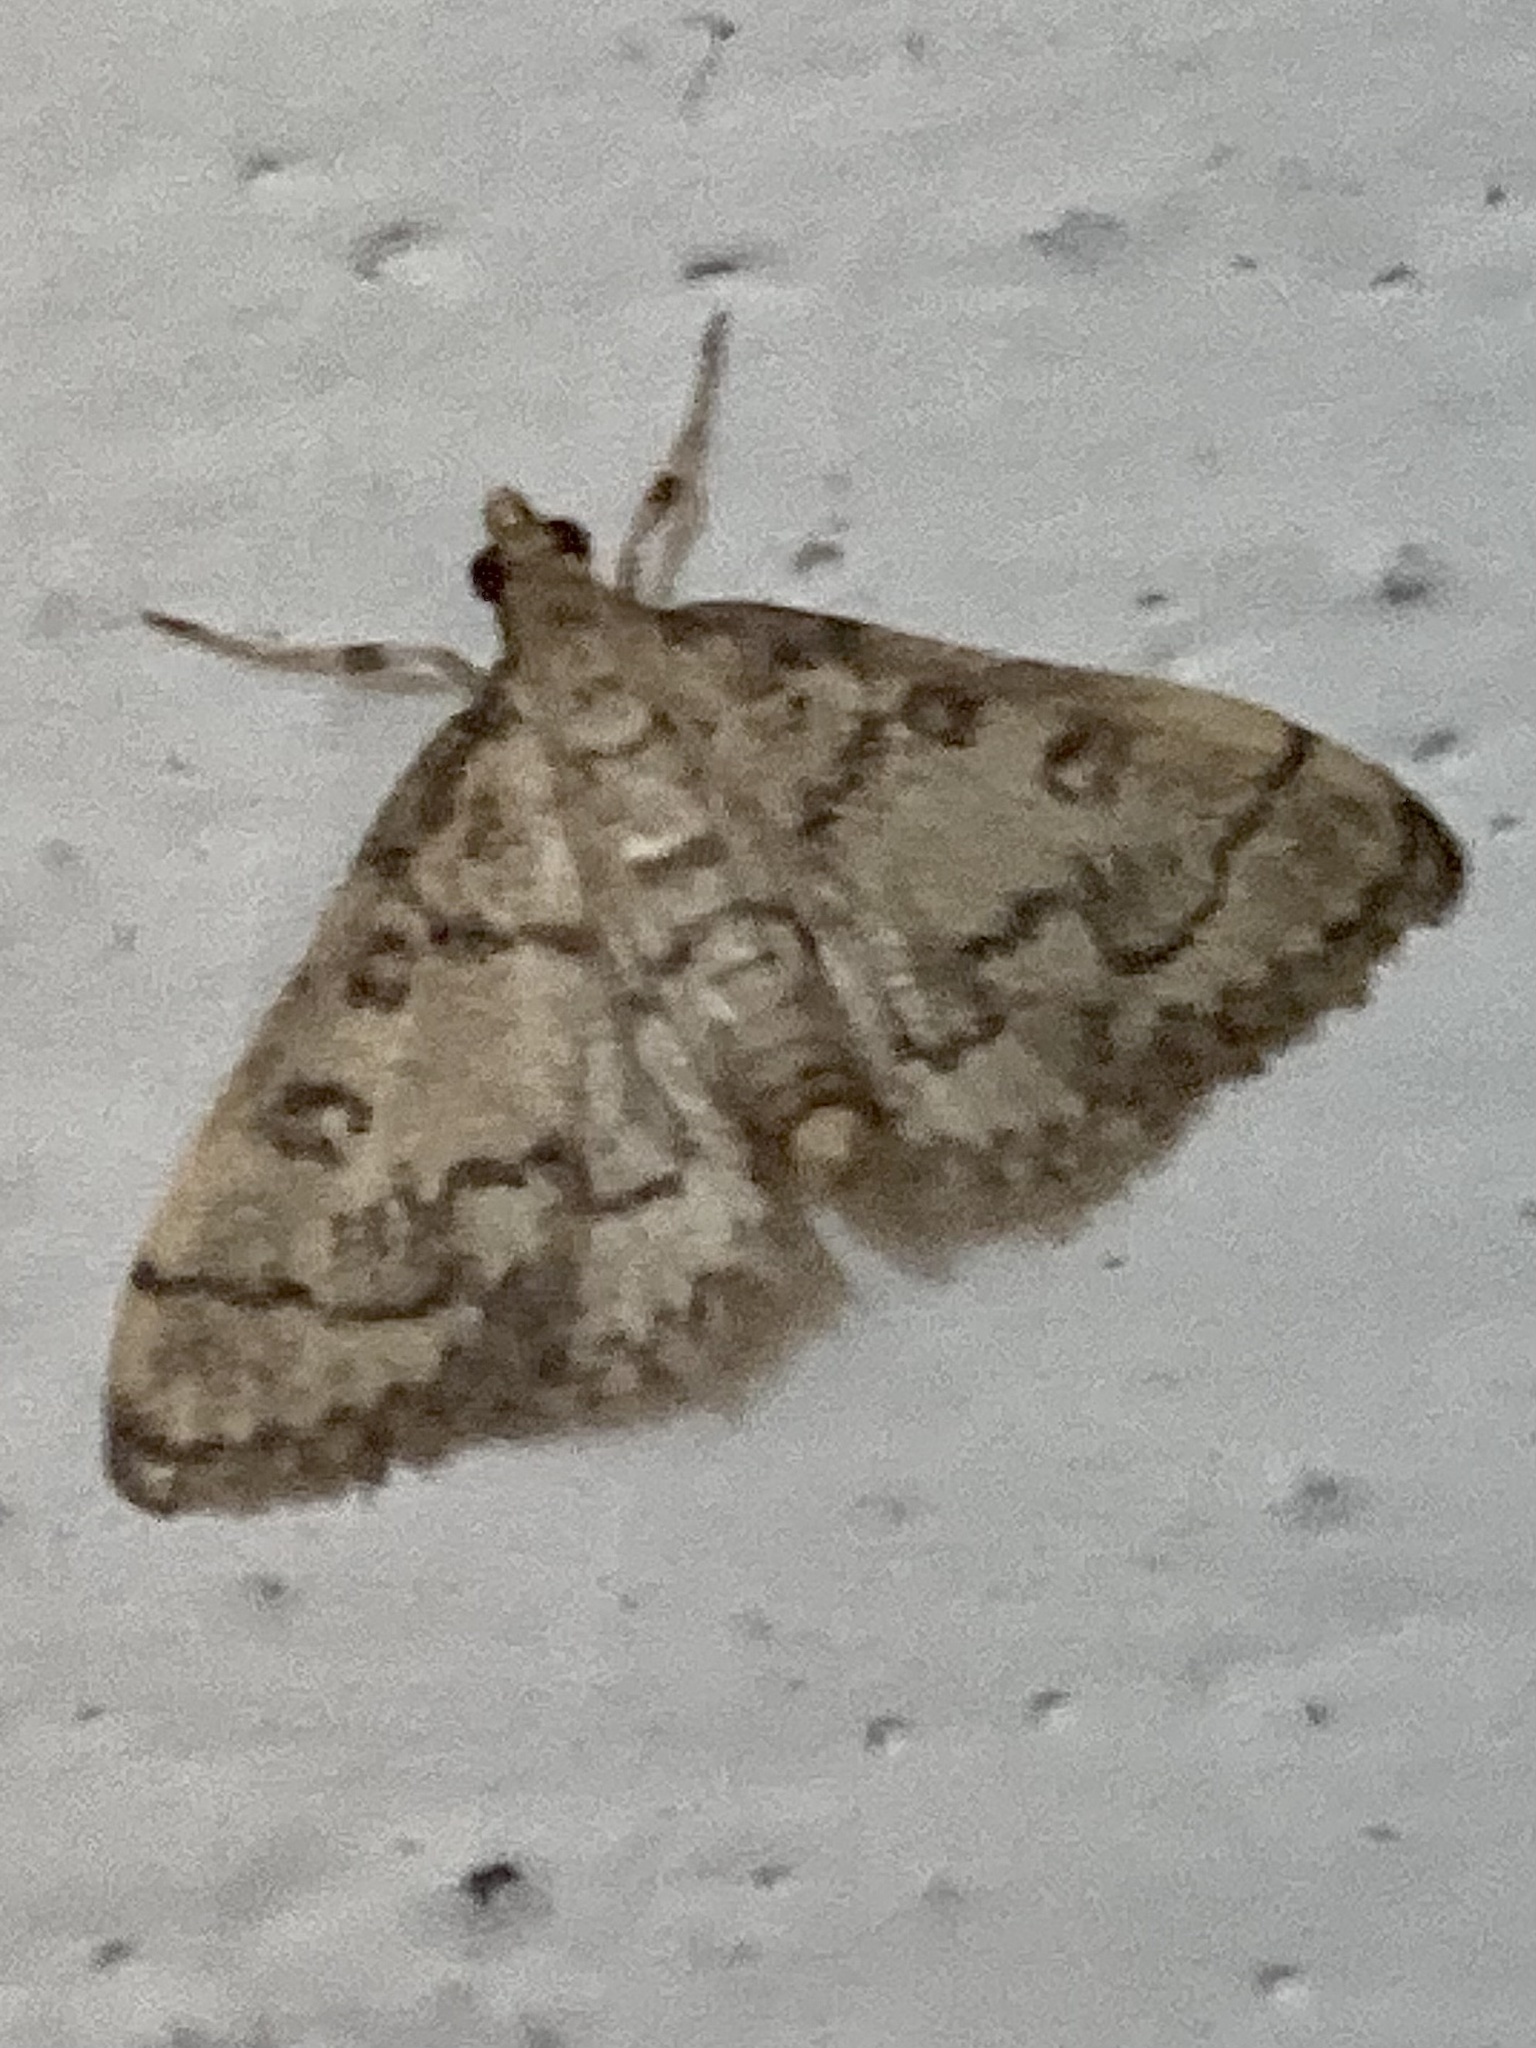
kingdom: Animalia
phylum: Arthropoda
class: Insecta
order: Lepidoptera
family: Crambidae
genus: Metasia
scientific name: Metasia ophialis
